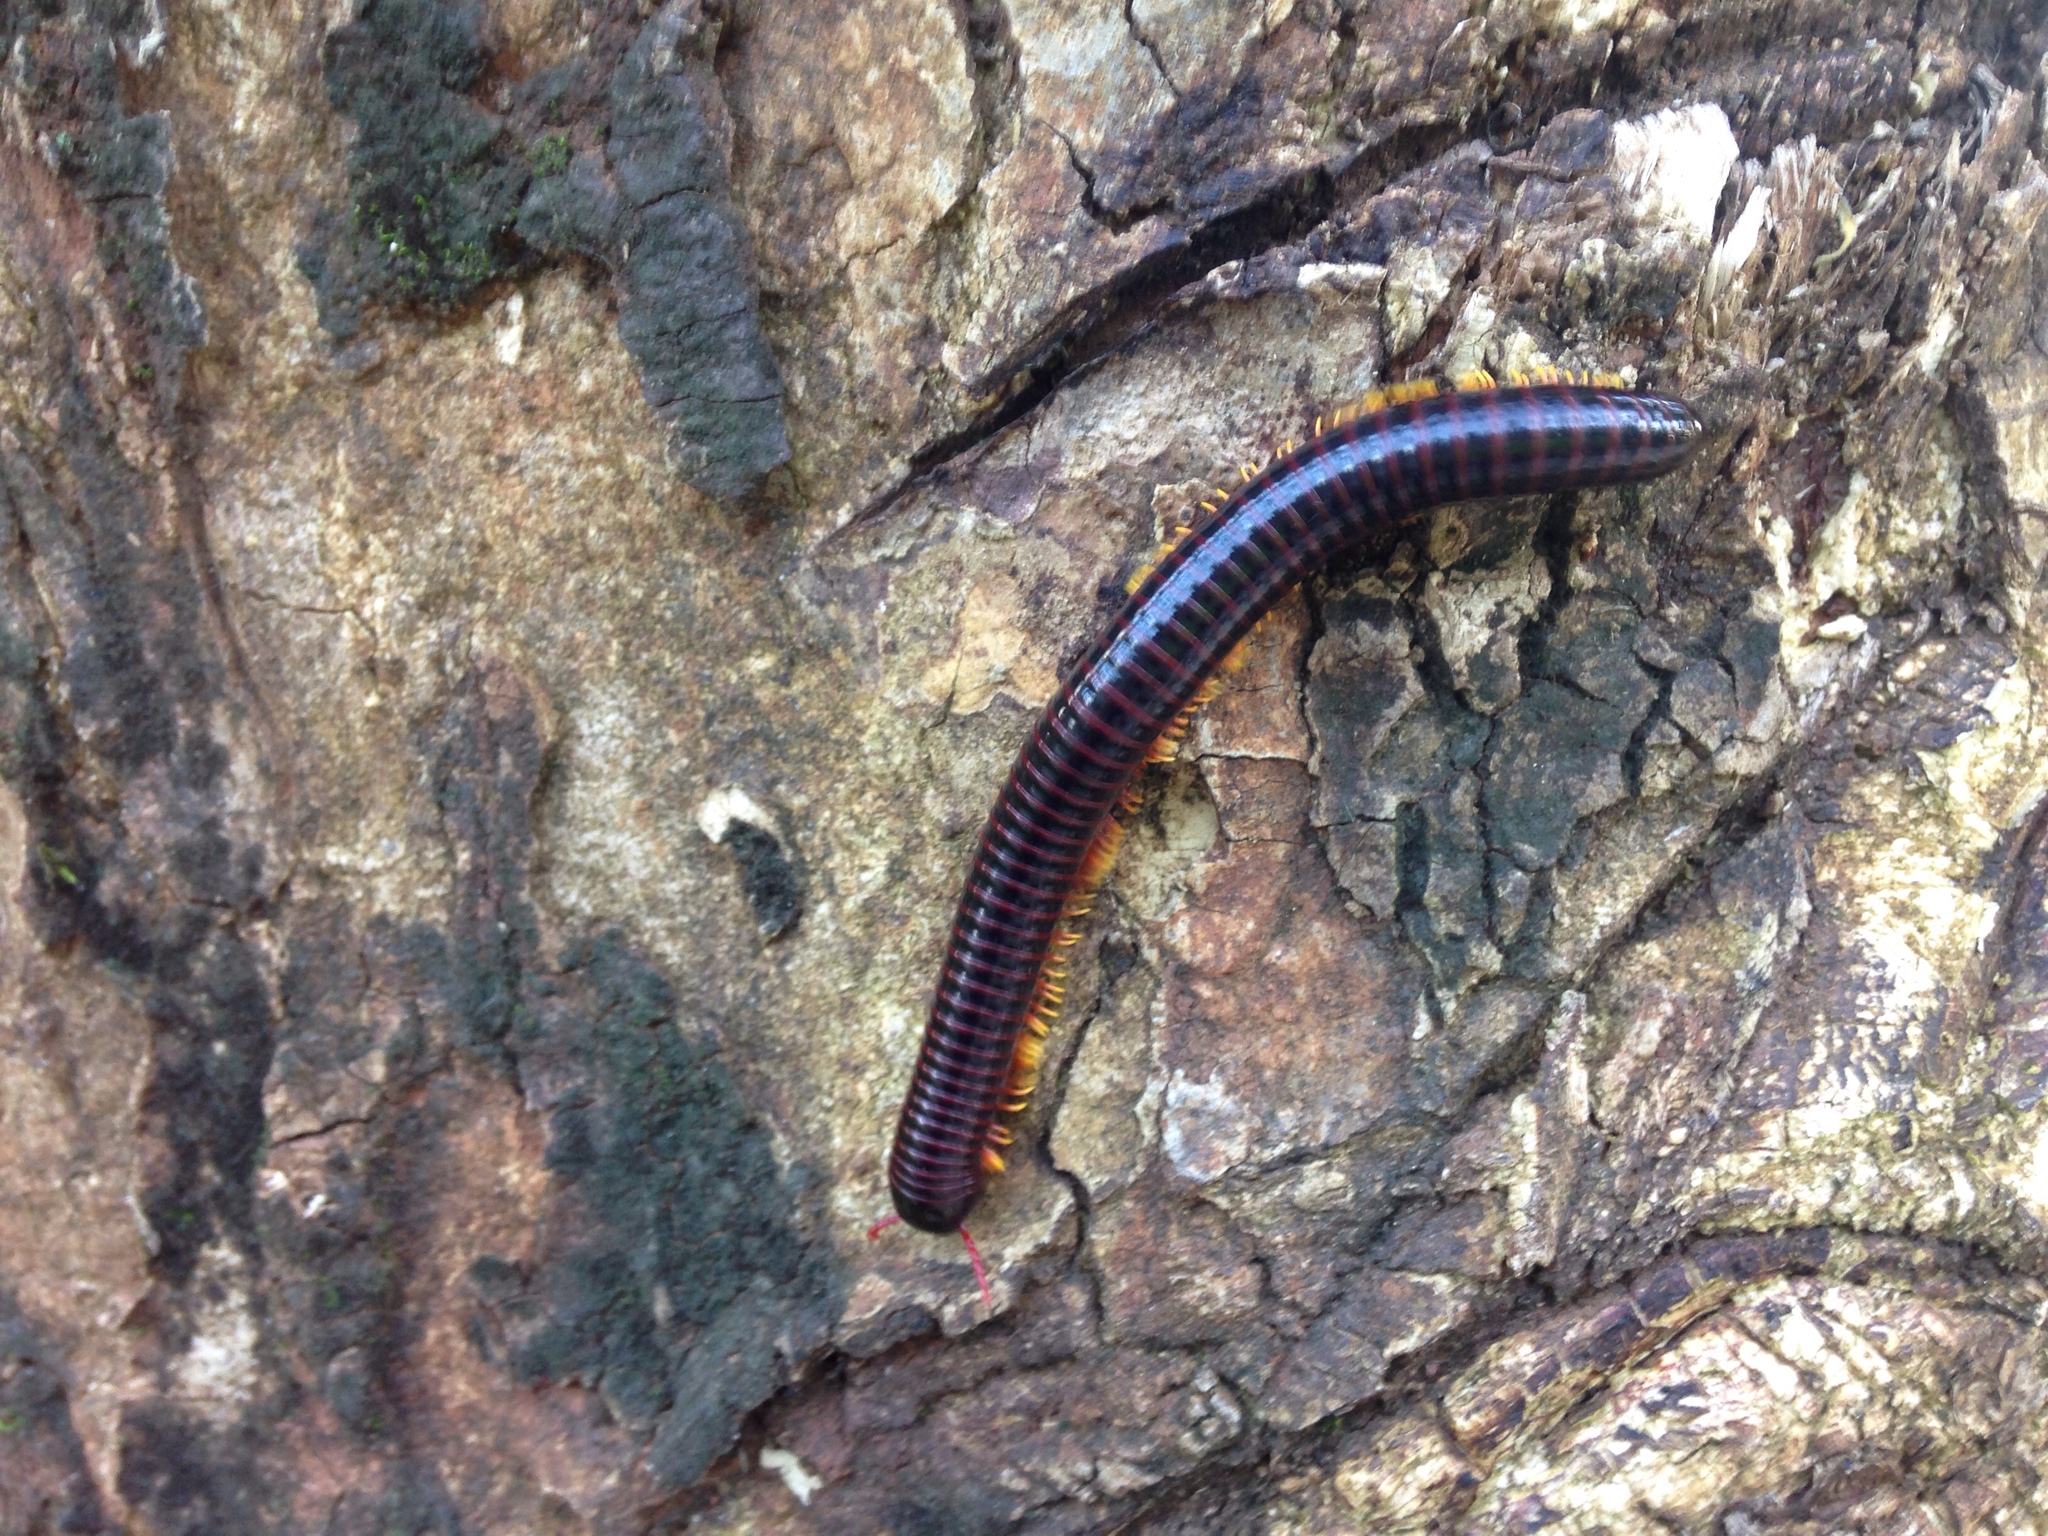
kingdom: Animalia
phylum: Arthropoda
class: Diplopoda
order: Spirobolida
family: Pachybolidae
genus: Trigoniulus
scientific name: Trigoniulus macropygus
